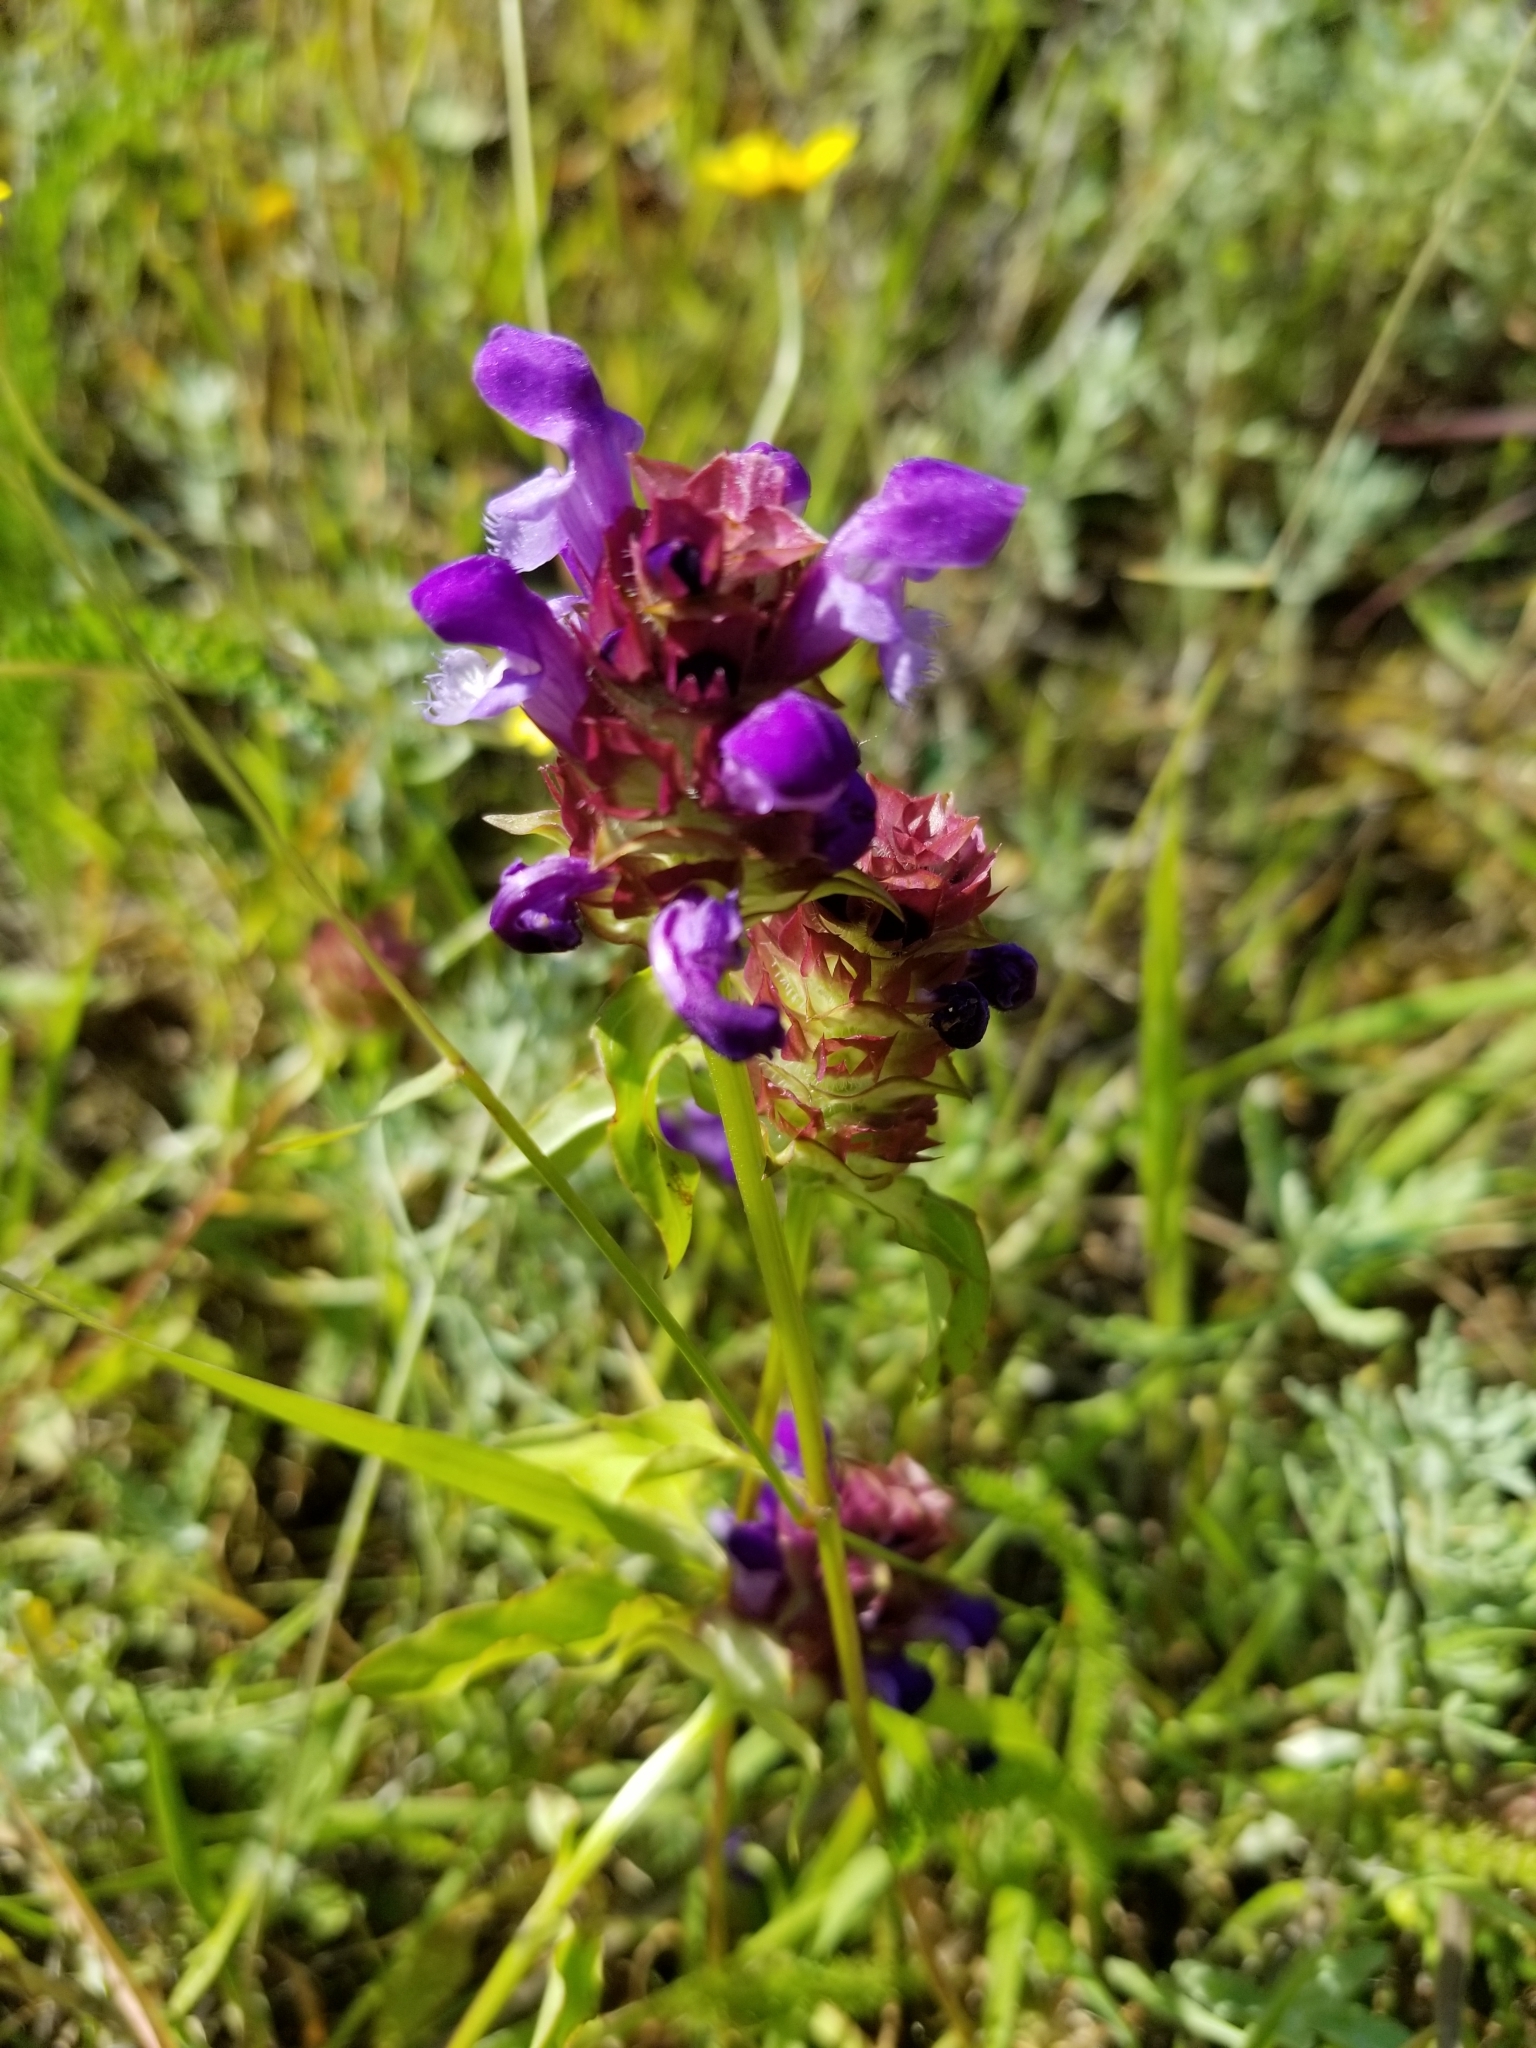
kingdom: Plantae
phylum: Tracheophyta
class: Magnoliopsida
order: Lamiales
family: Lamiaceae
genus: Prunella
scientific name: Prunella vulgaris
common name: Heal-all
